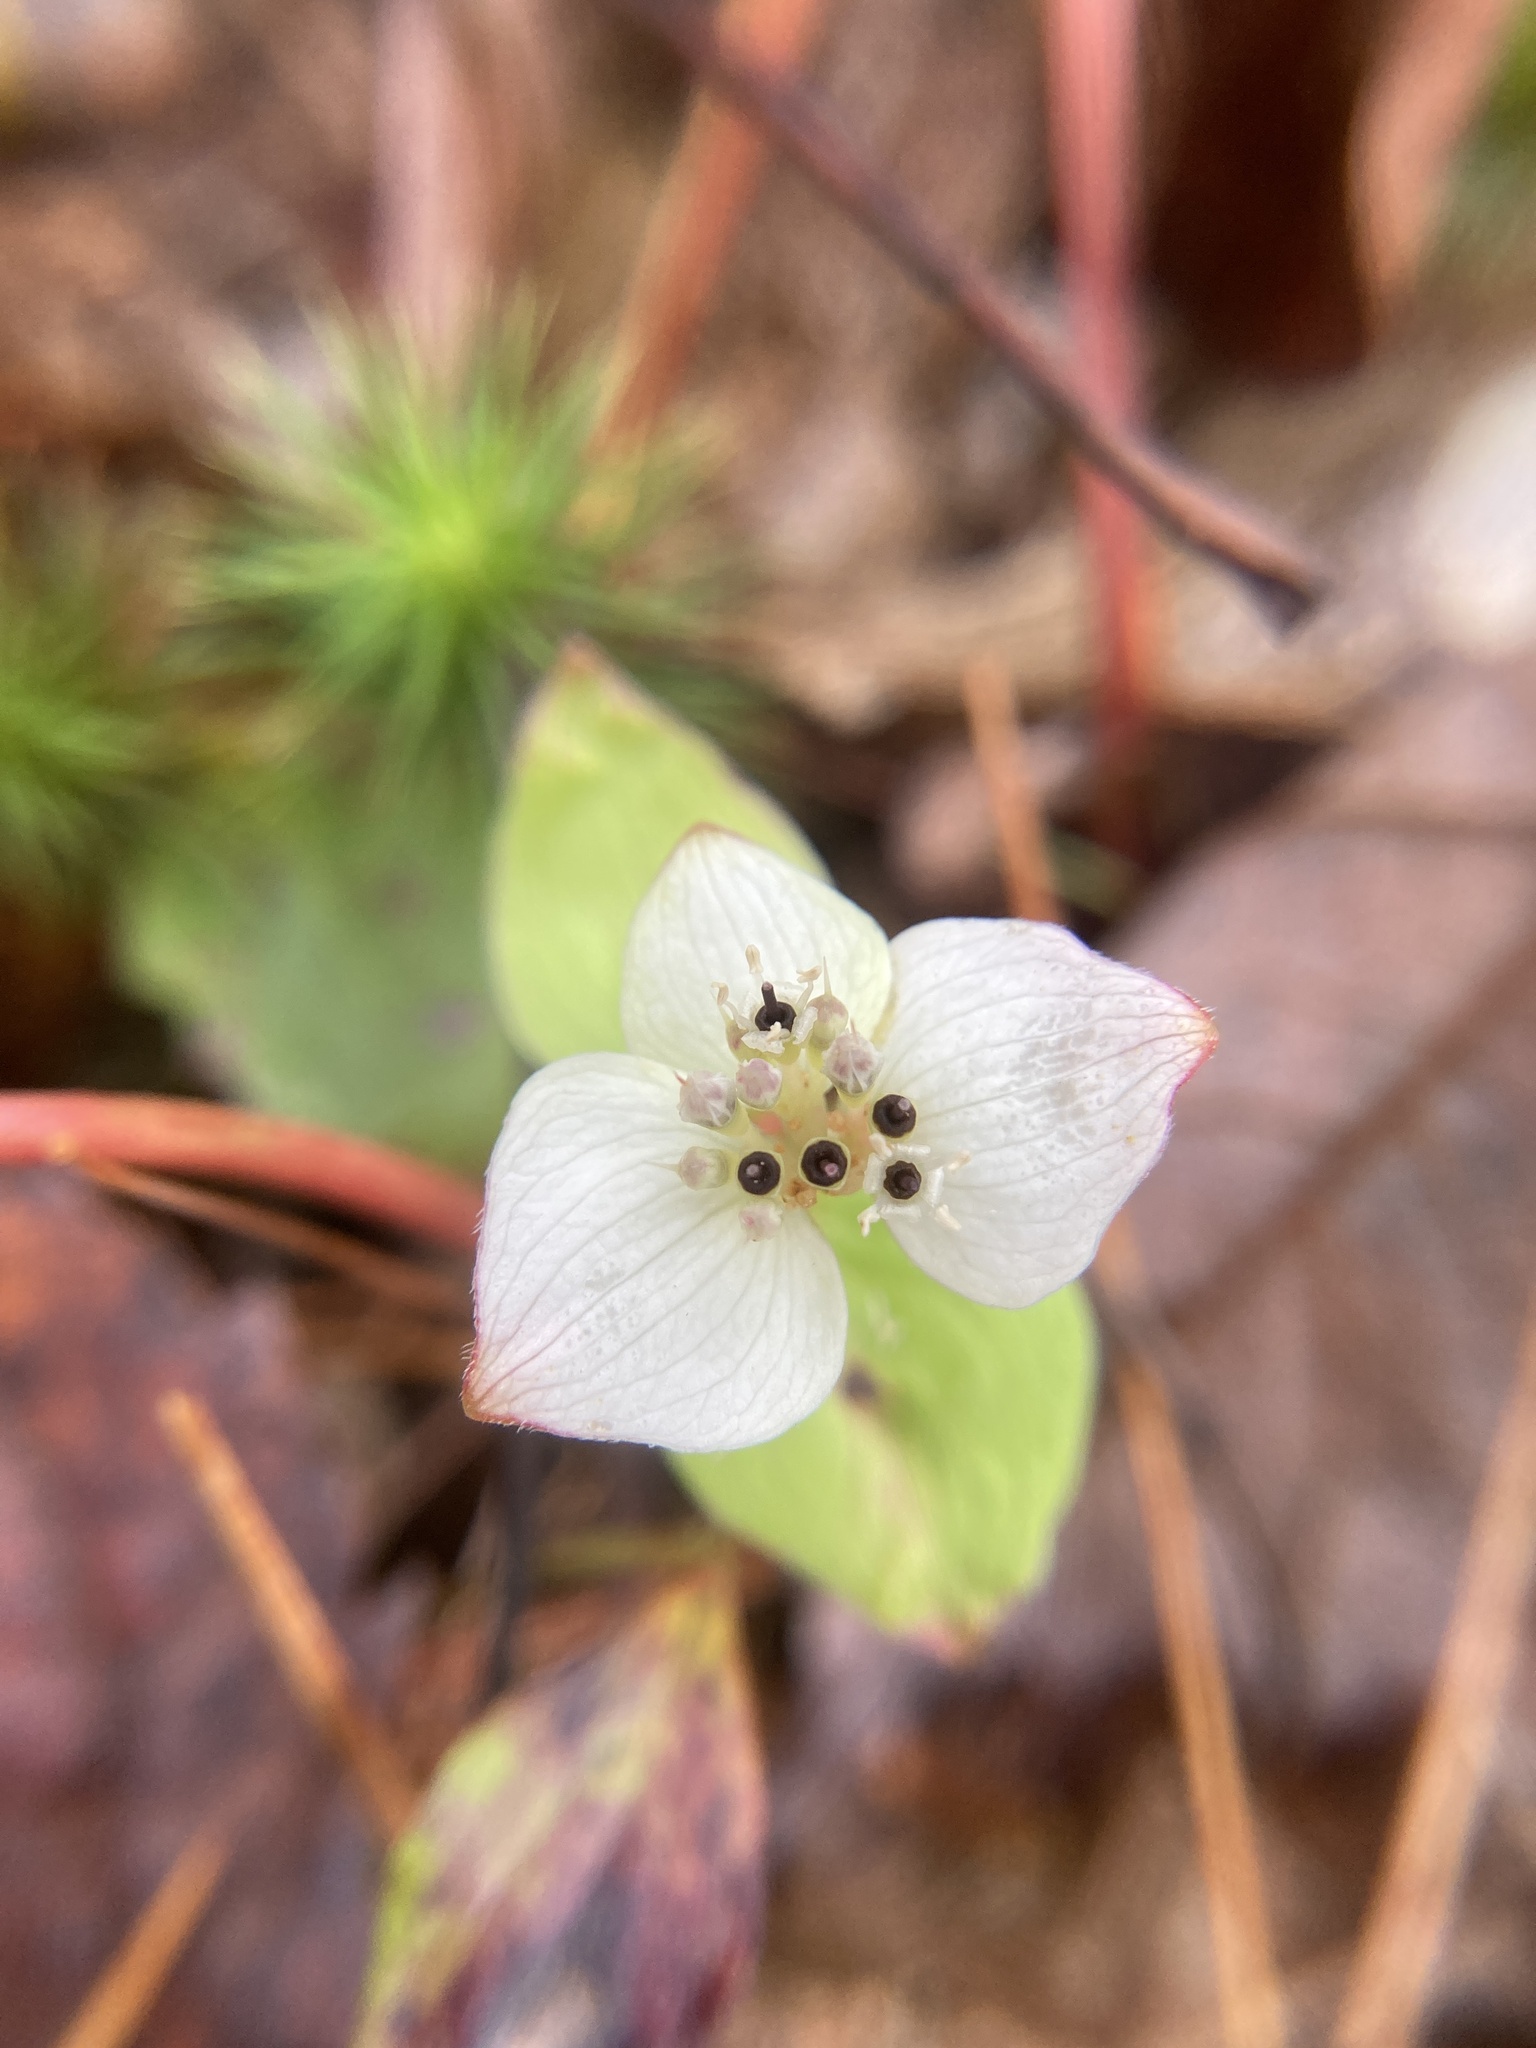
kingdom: Plantae
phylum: Tracheophyta
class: Magnoliopsida
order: Cornales
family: Cornaceae
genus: Cornus
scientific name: Cornus canadensis
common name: Creeping dogwood
